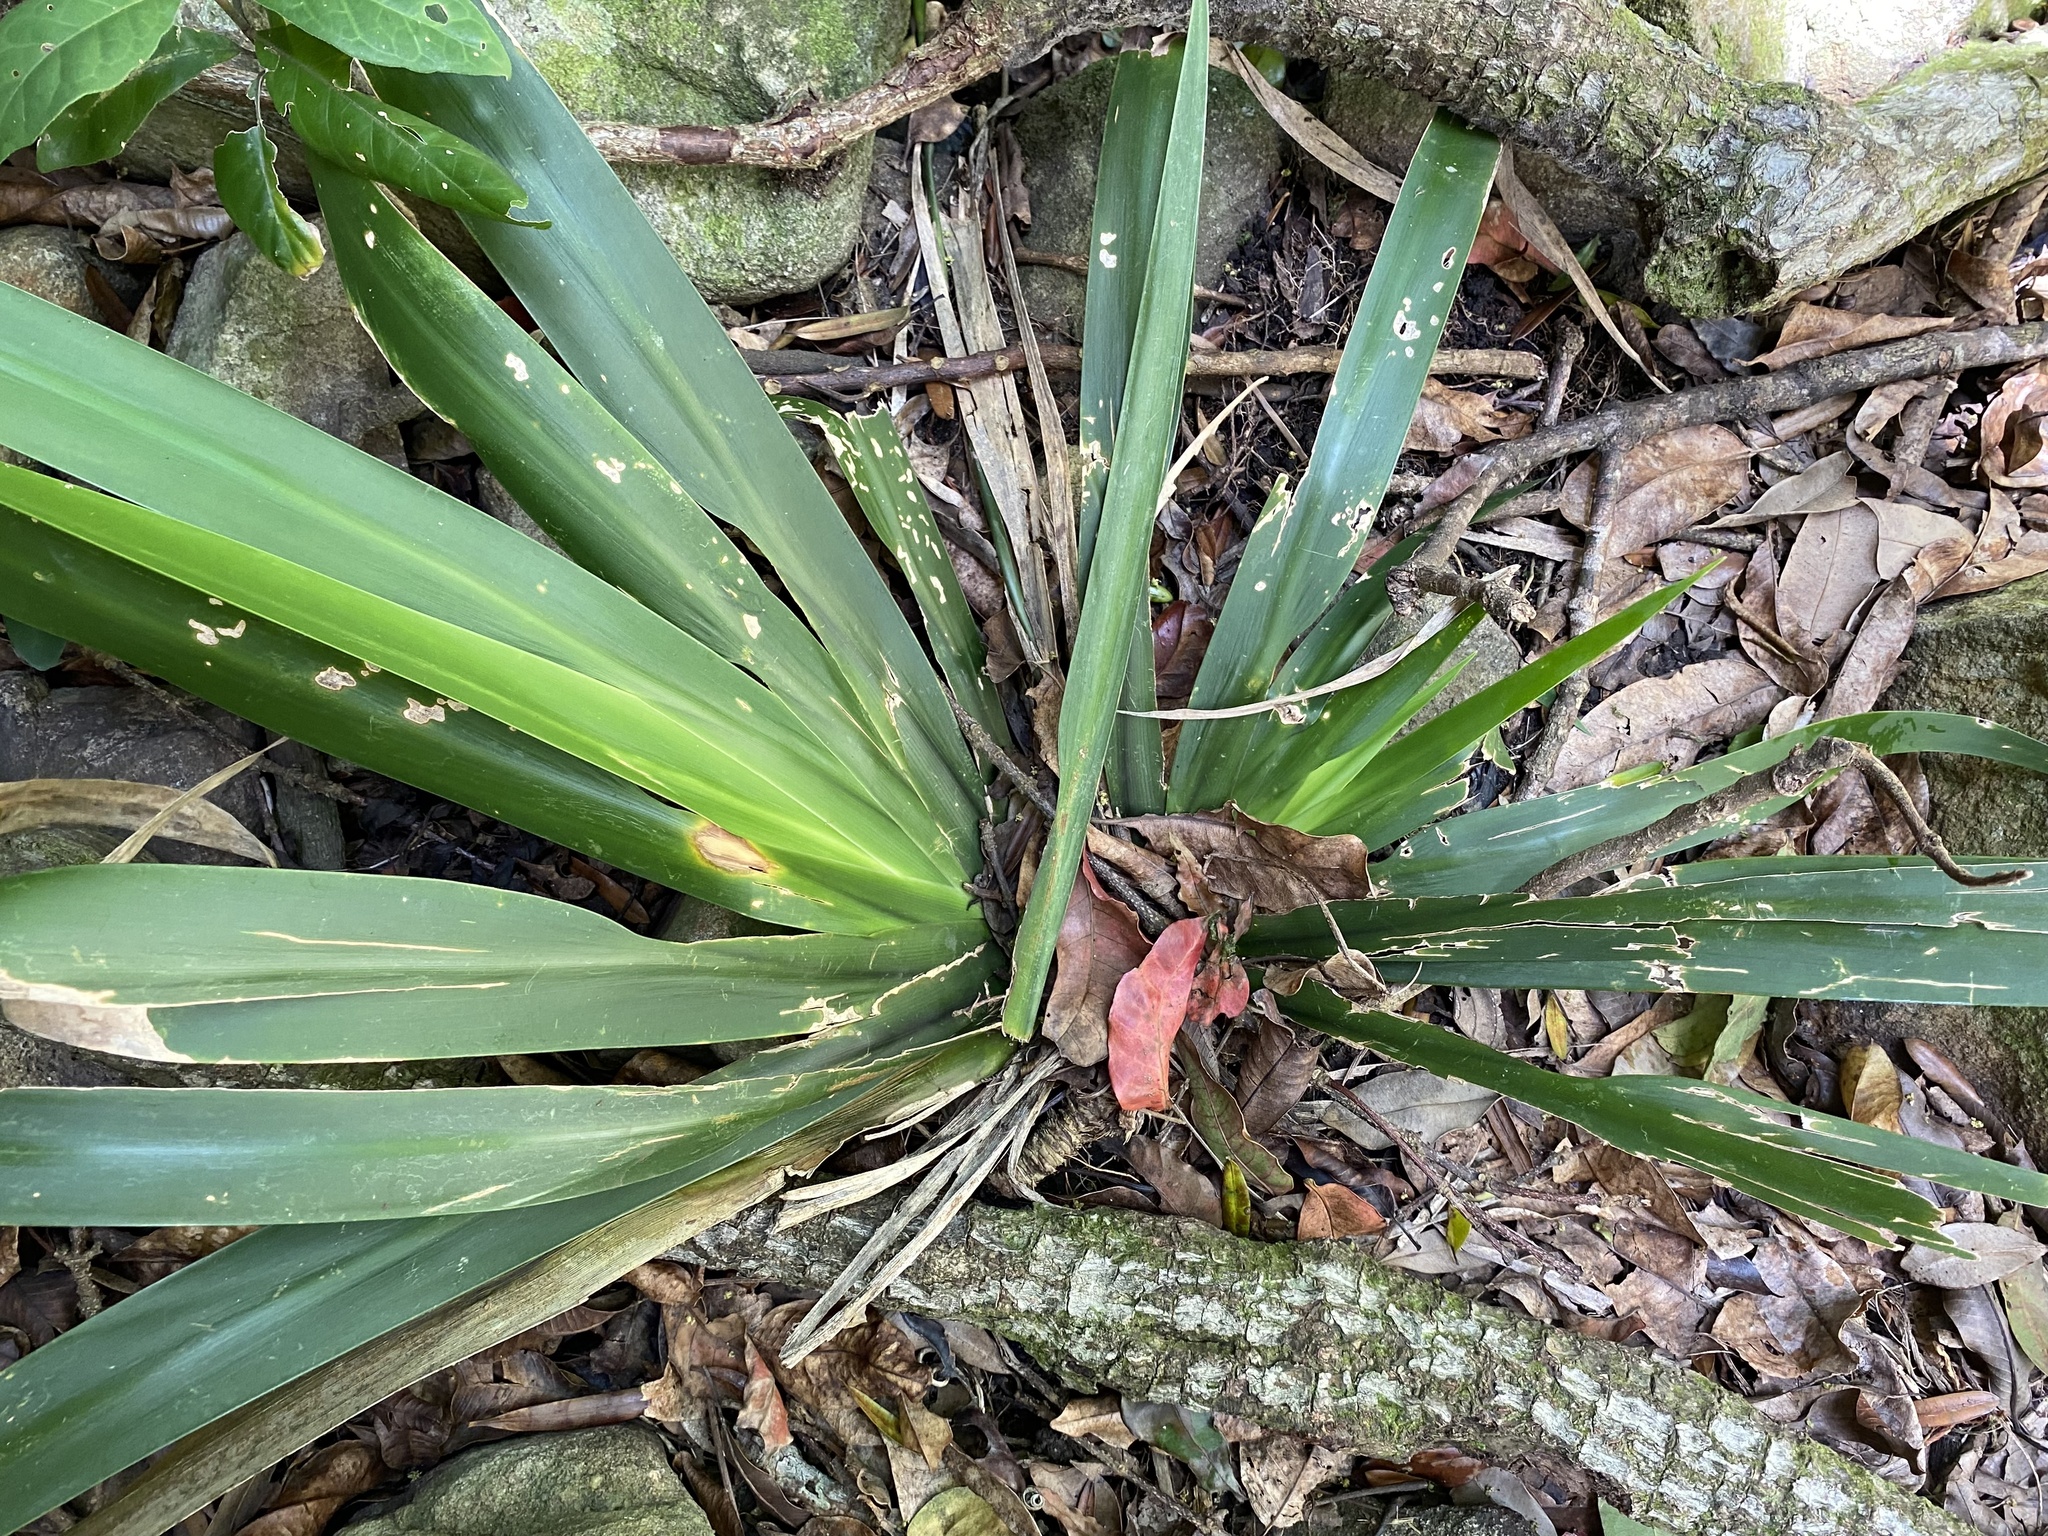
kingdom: Plantae
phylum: Tracheophyta
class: Liliopsida
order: Asparagales
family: Iridaceae
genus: Dietes
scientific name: Dietes iridioides
